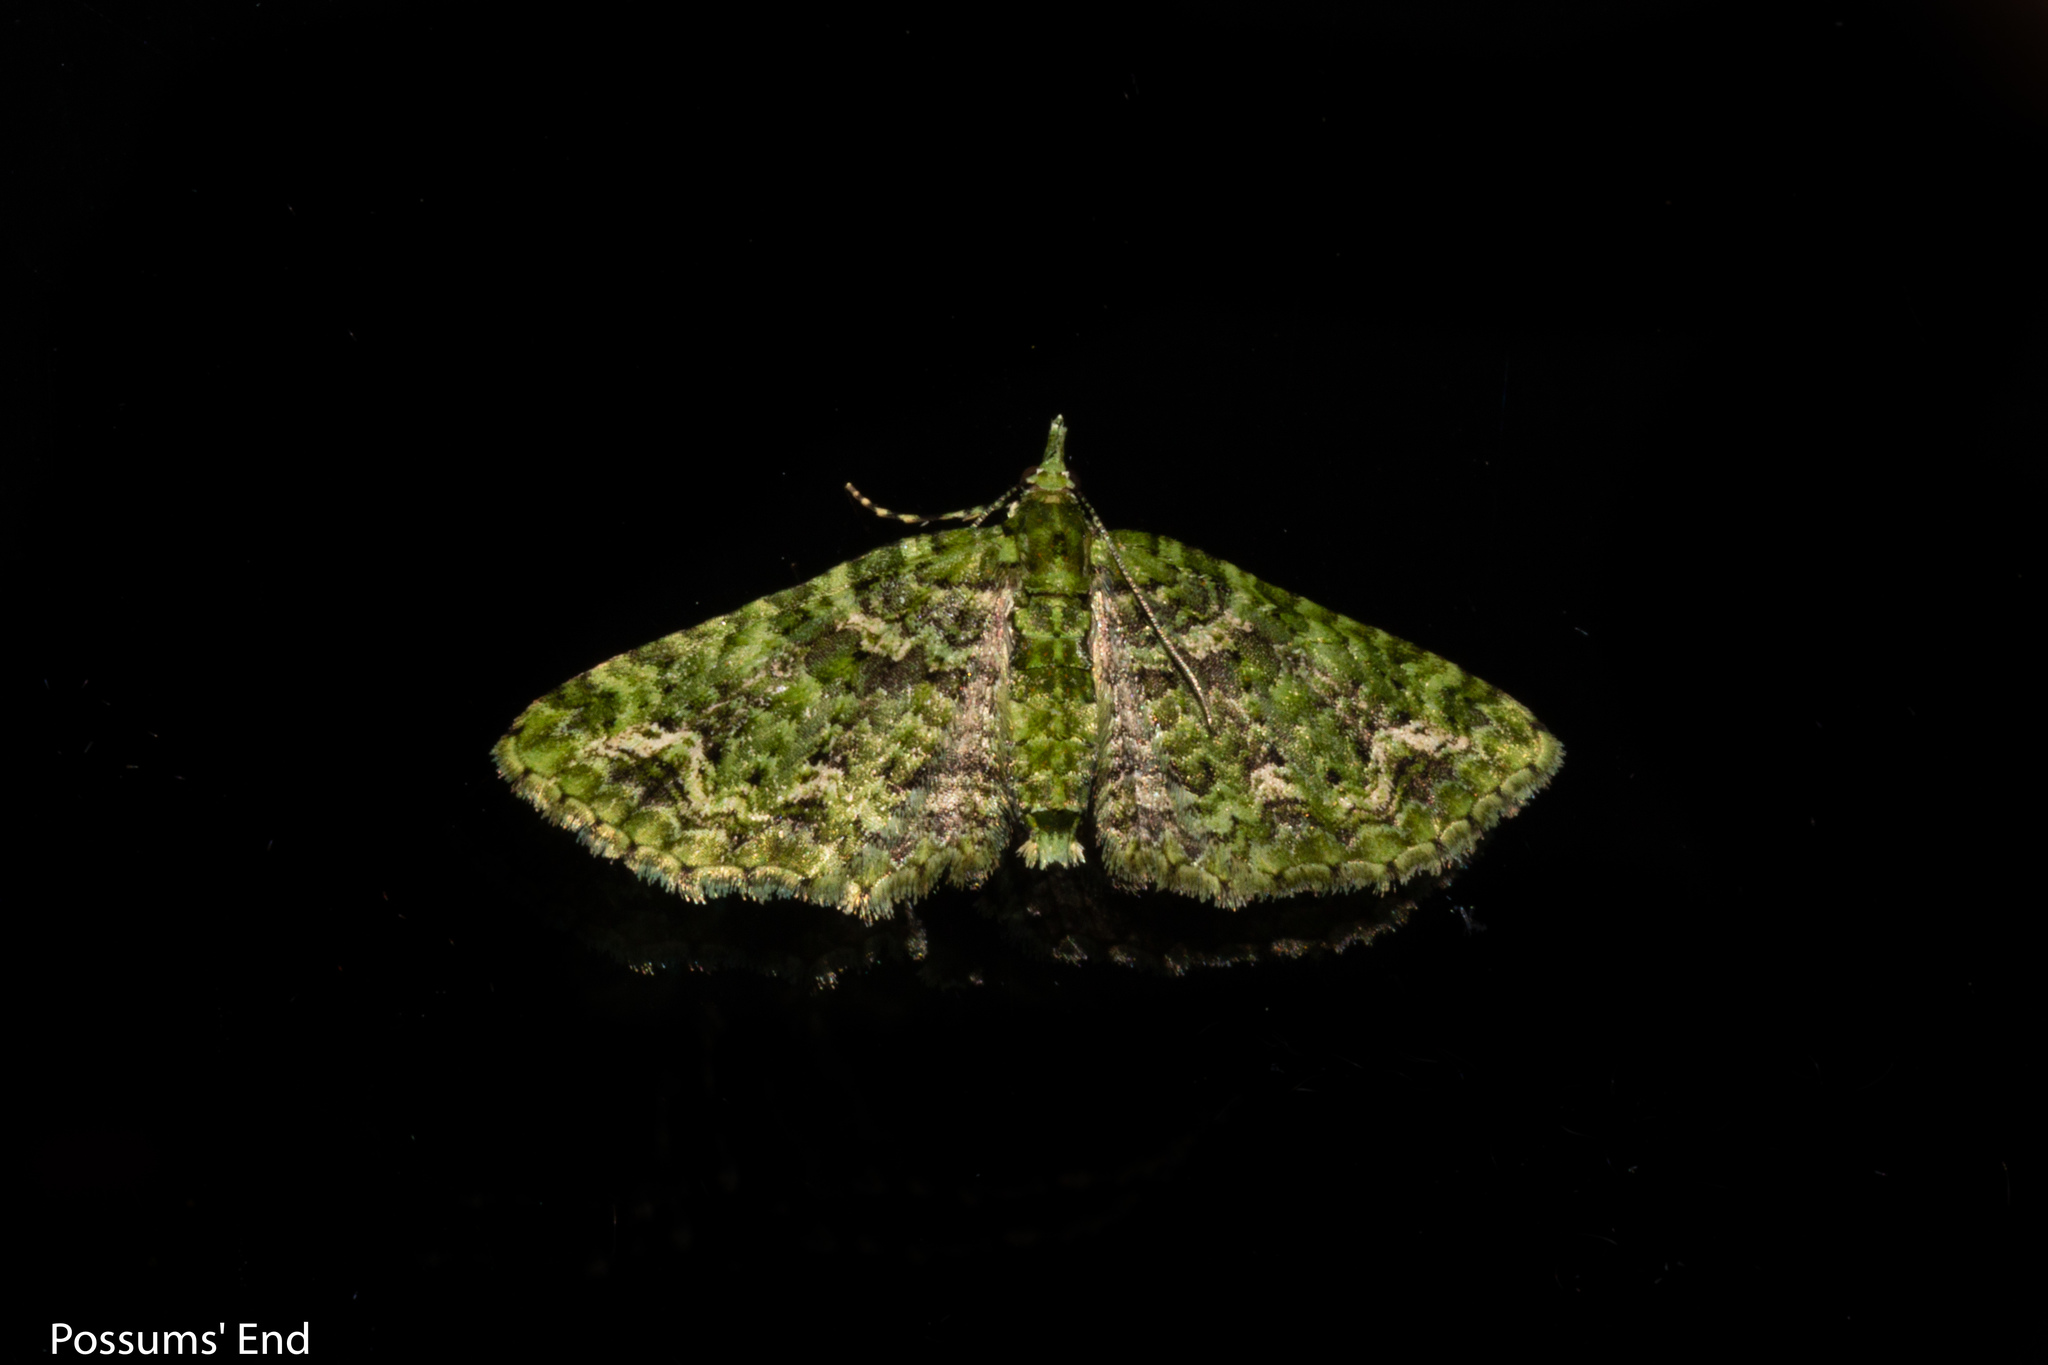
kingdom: Animalia
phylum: Arthropoda
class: Insecta
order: Lepidoptera
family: Geometridae
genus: Pasiphila
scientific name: Pasiphila muscosata
